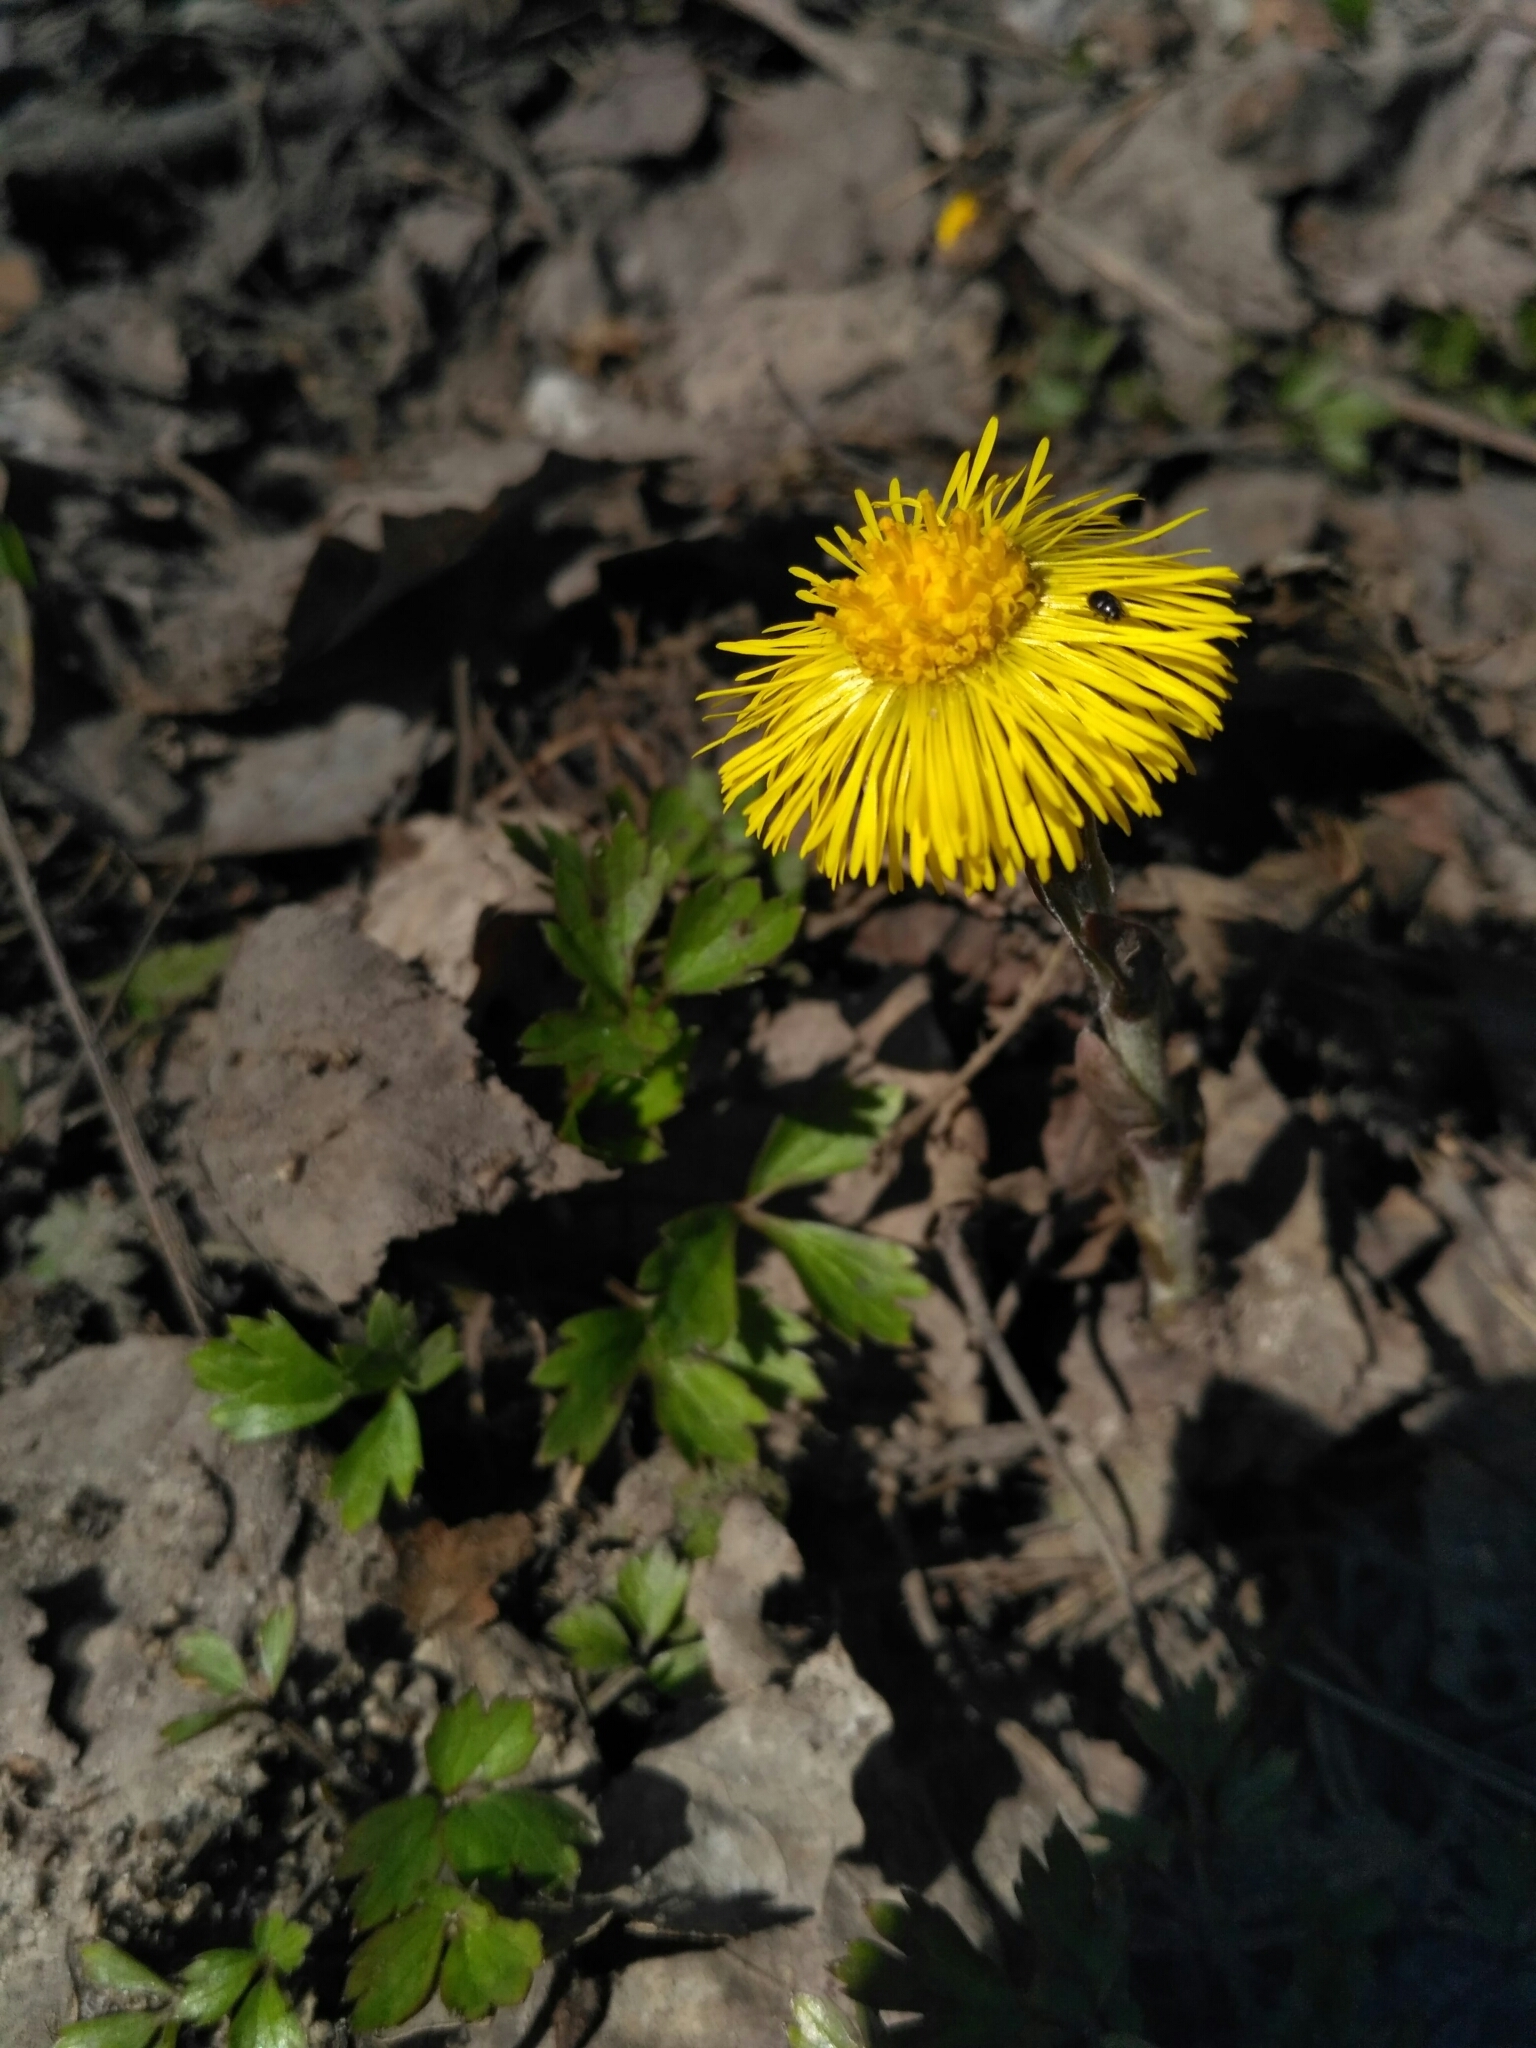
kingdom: Plantae
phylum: Tracheophyta
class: Magnoliopsida
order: Asterales
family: Asteraceae
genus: Tussilago
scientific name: Tussilago farfara
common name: Coltsfoot
